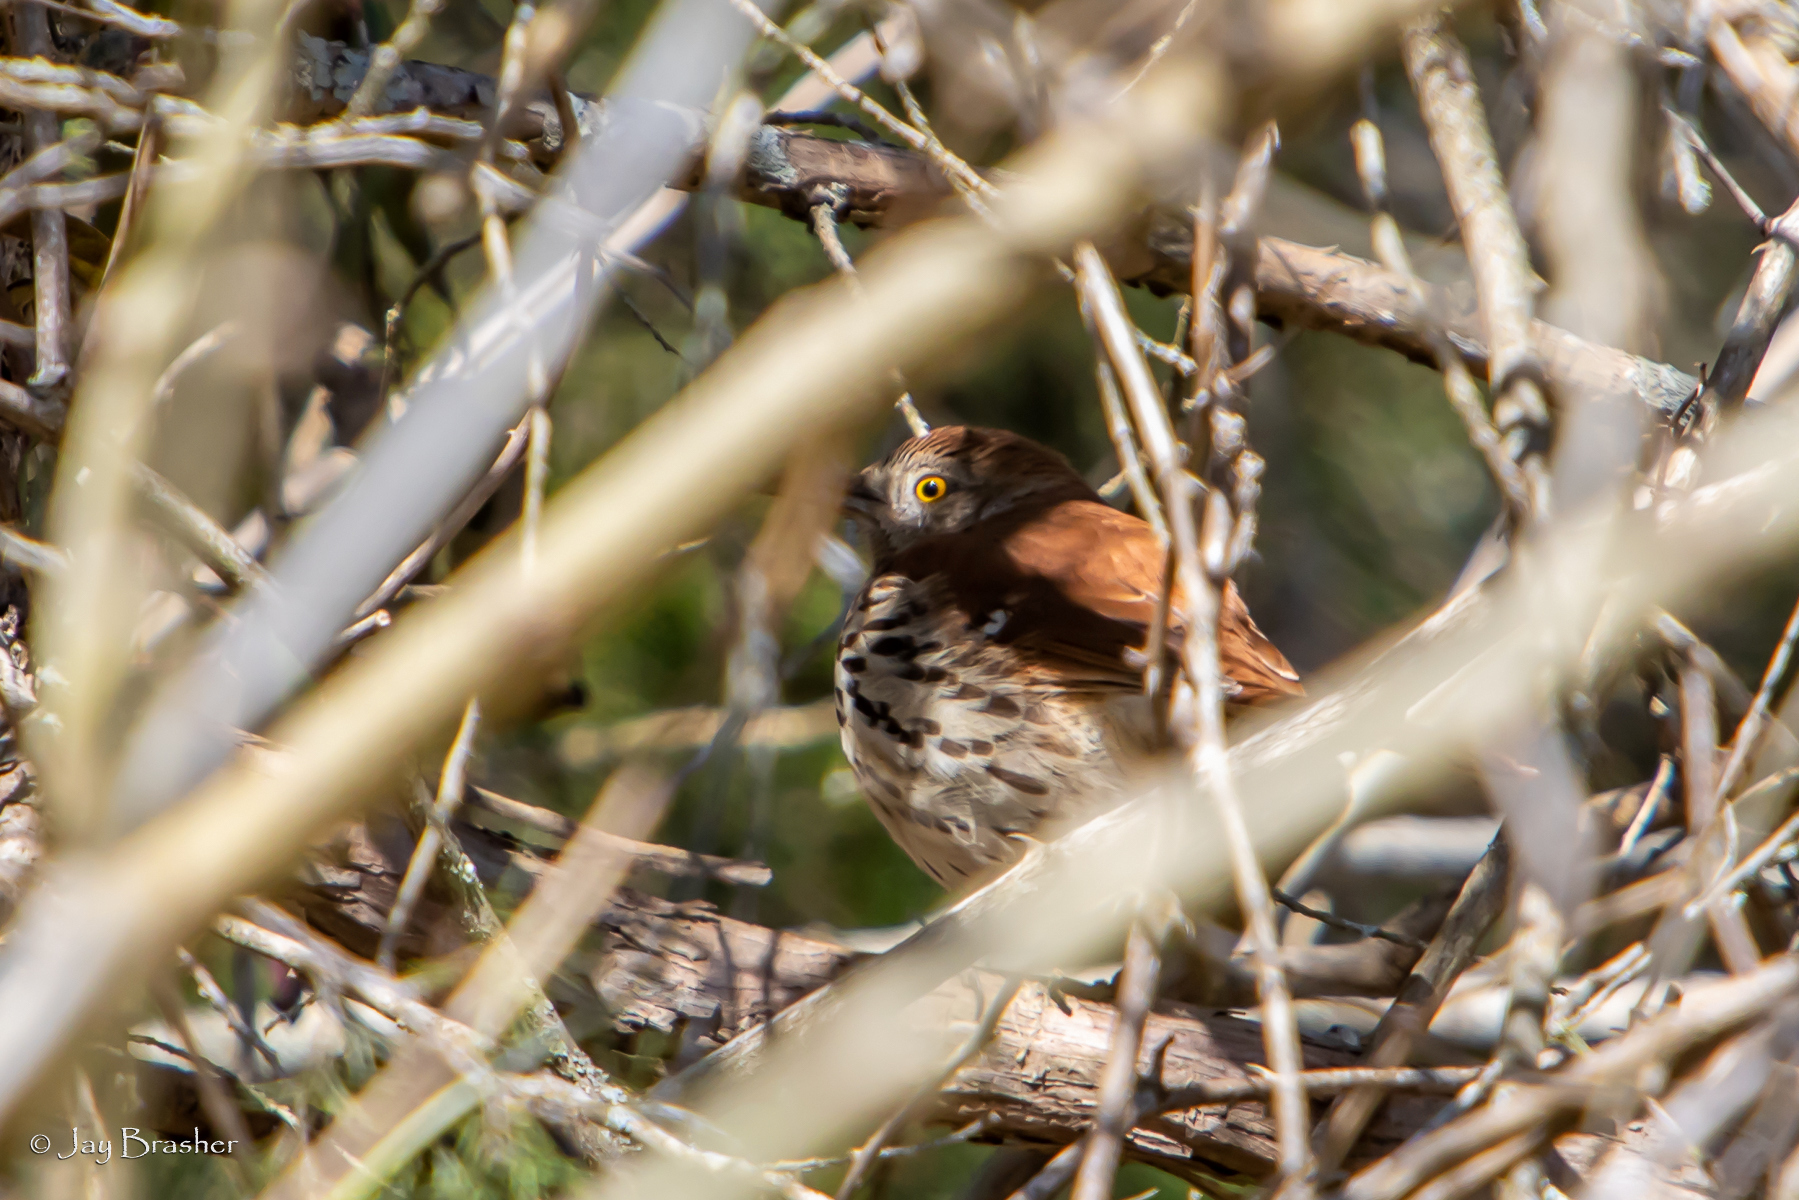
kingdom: Animalia
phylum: Chordata
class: Aves
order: Passeriformes
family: Mimidae
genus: Toxostoma
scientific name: Toxostoma rufum
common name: Brown thrasher
